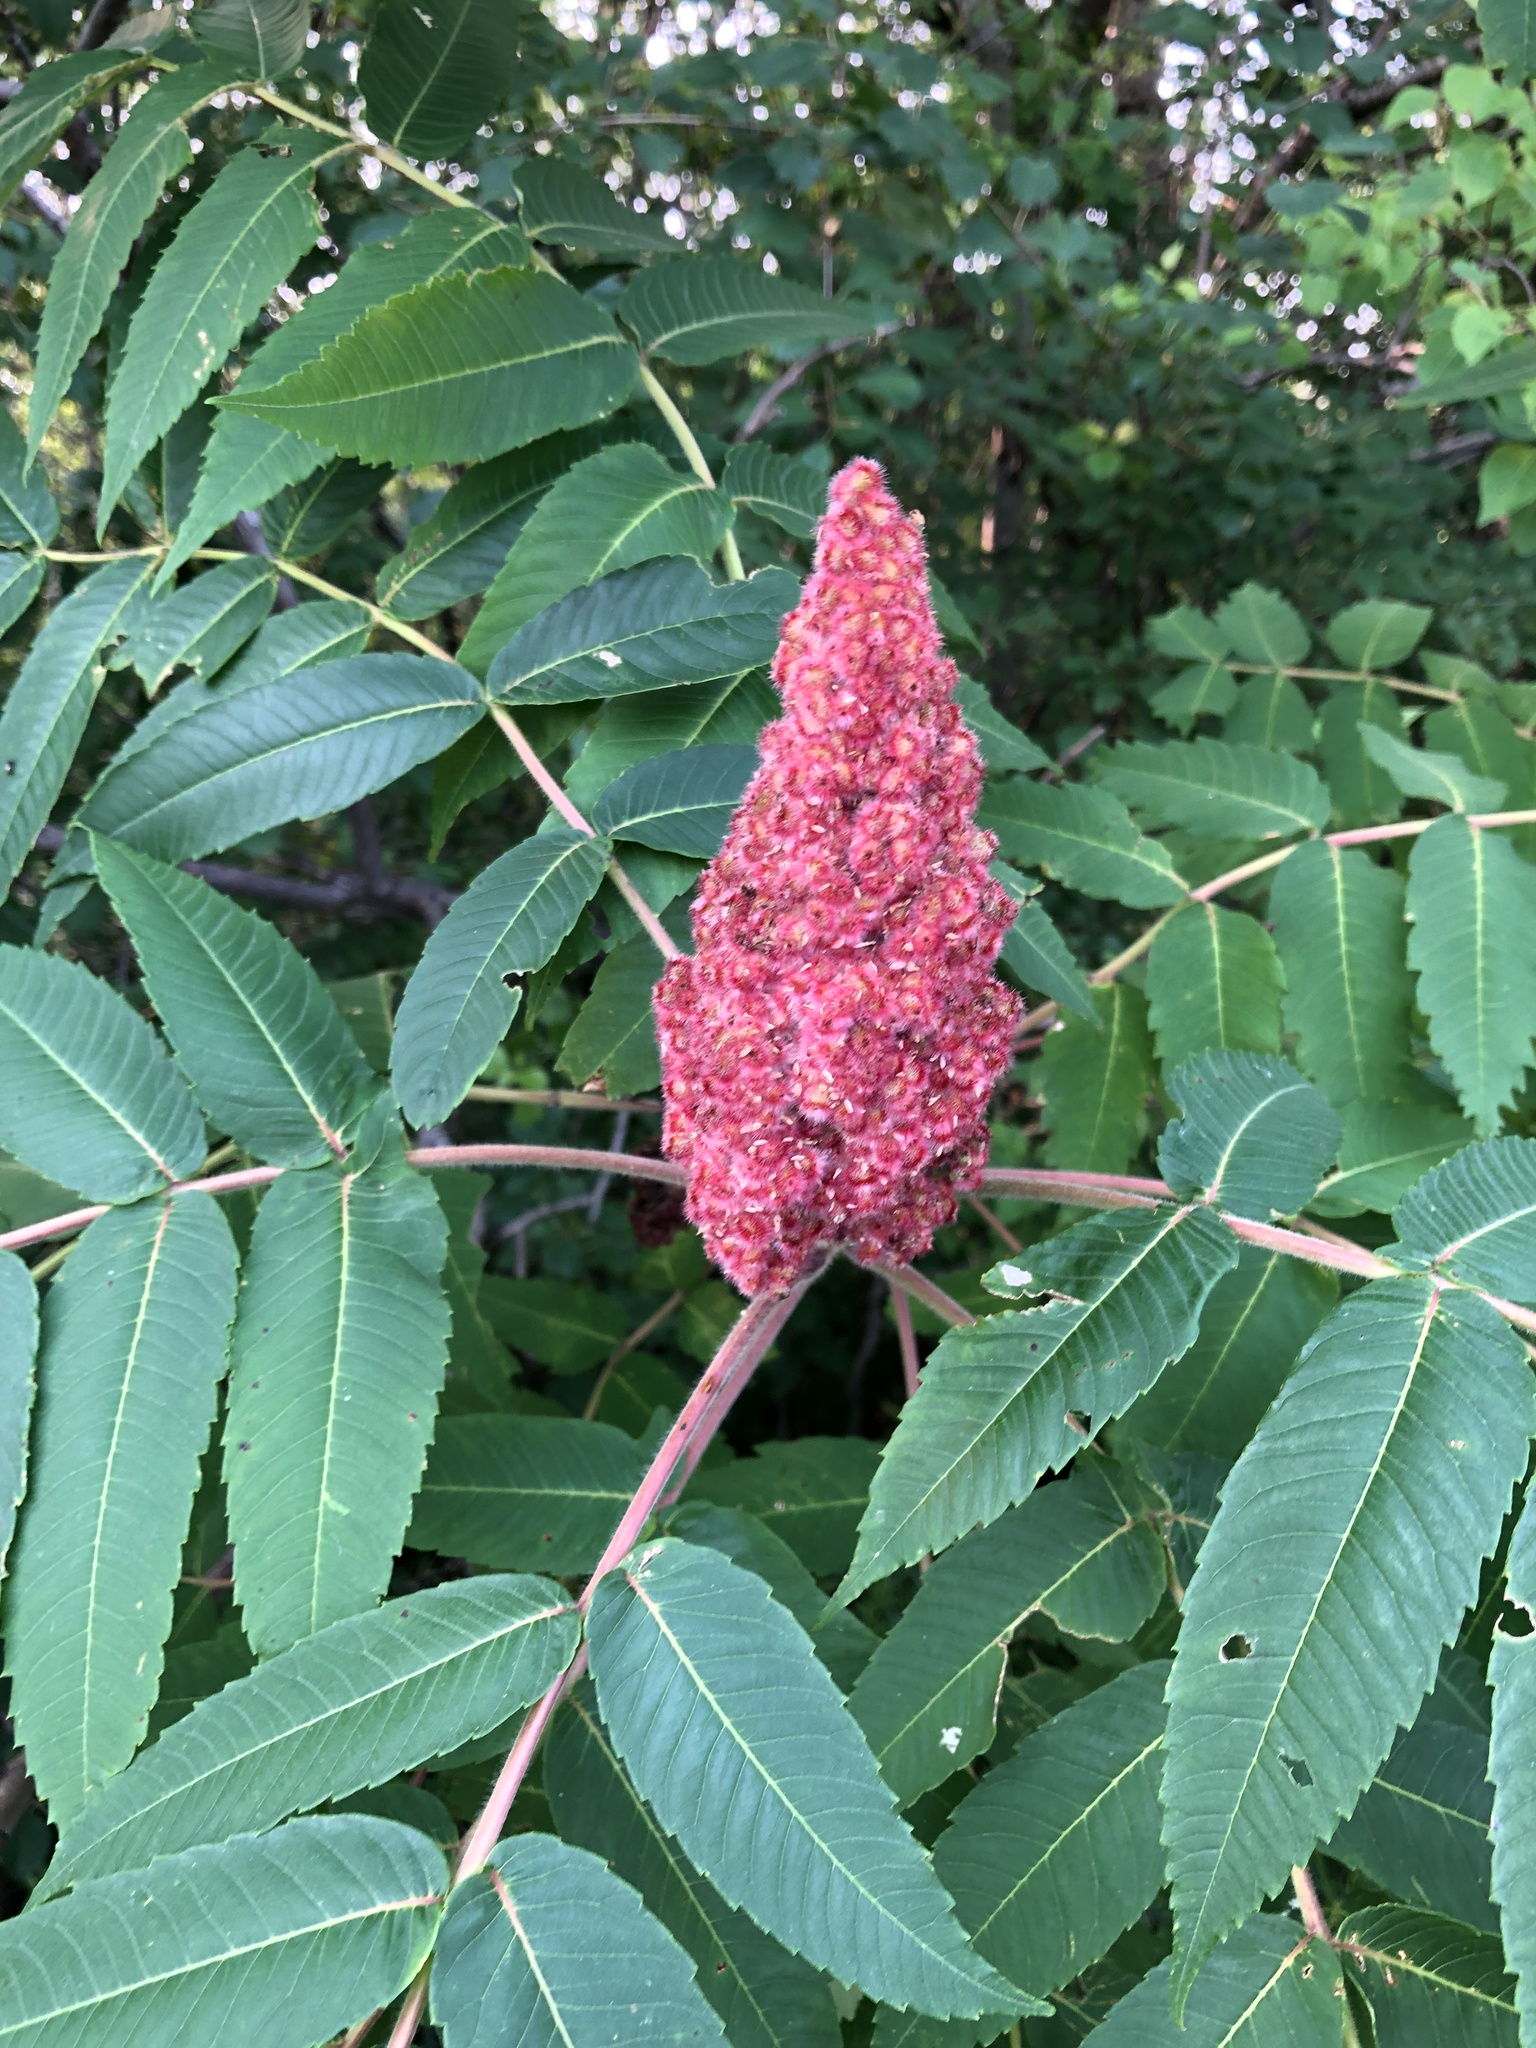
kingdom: Plantae
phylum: Tracheophyta
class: Magnoliopsida
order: Sapindales
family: Anacardiaceae
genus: Rhus
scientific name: Rhus typhina
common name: Staghorn sumac
